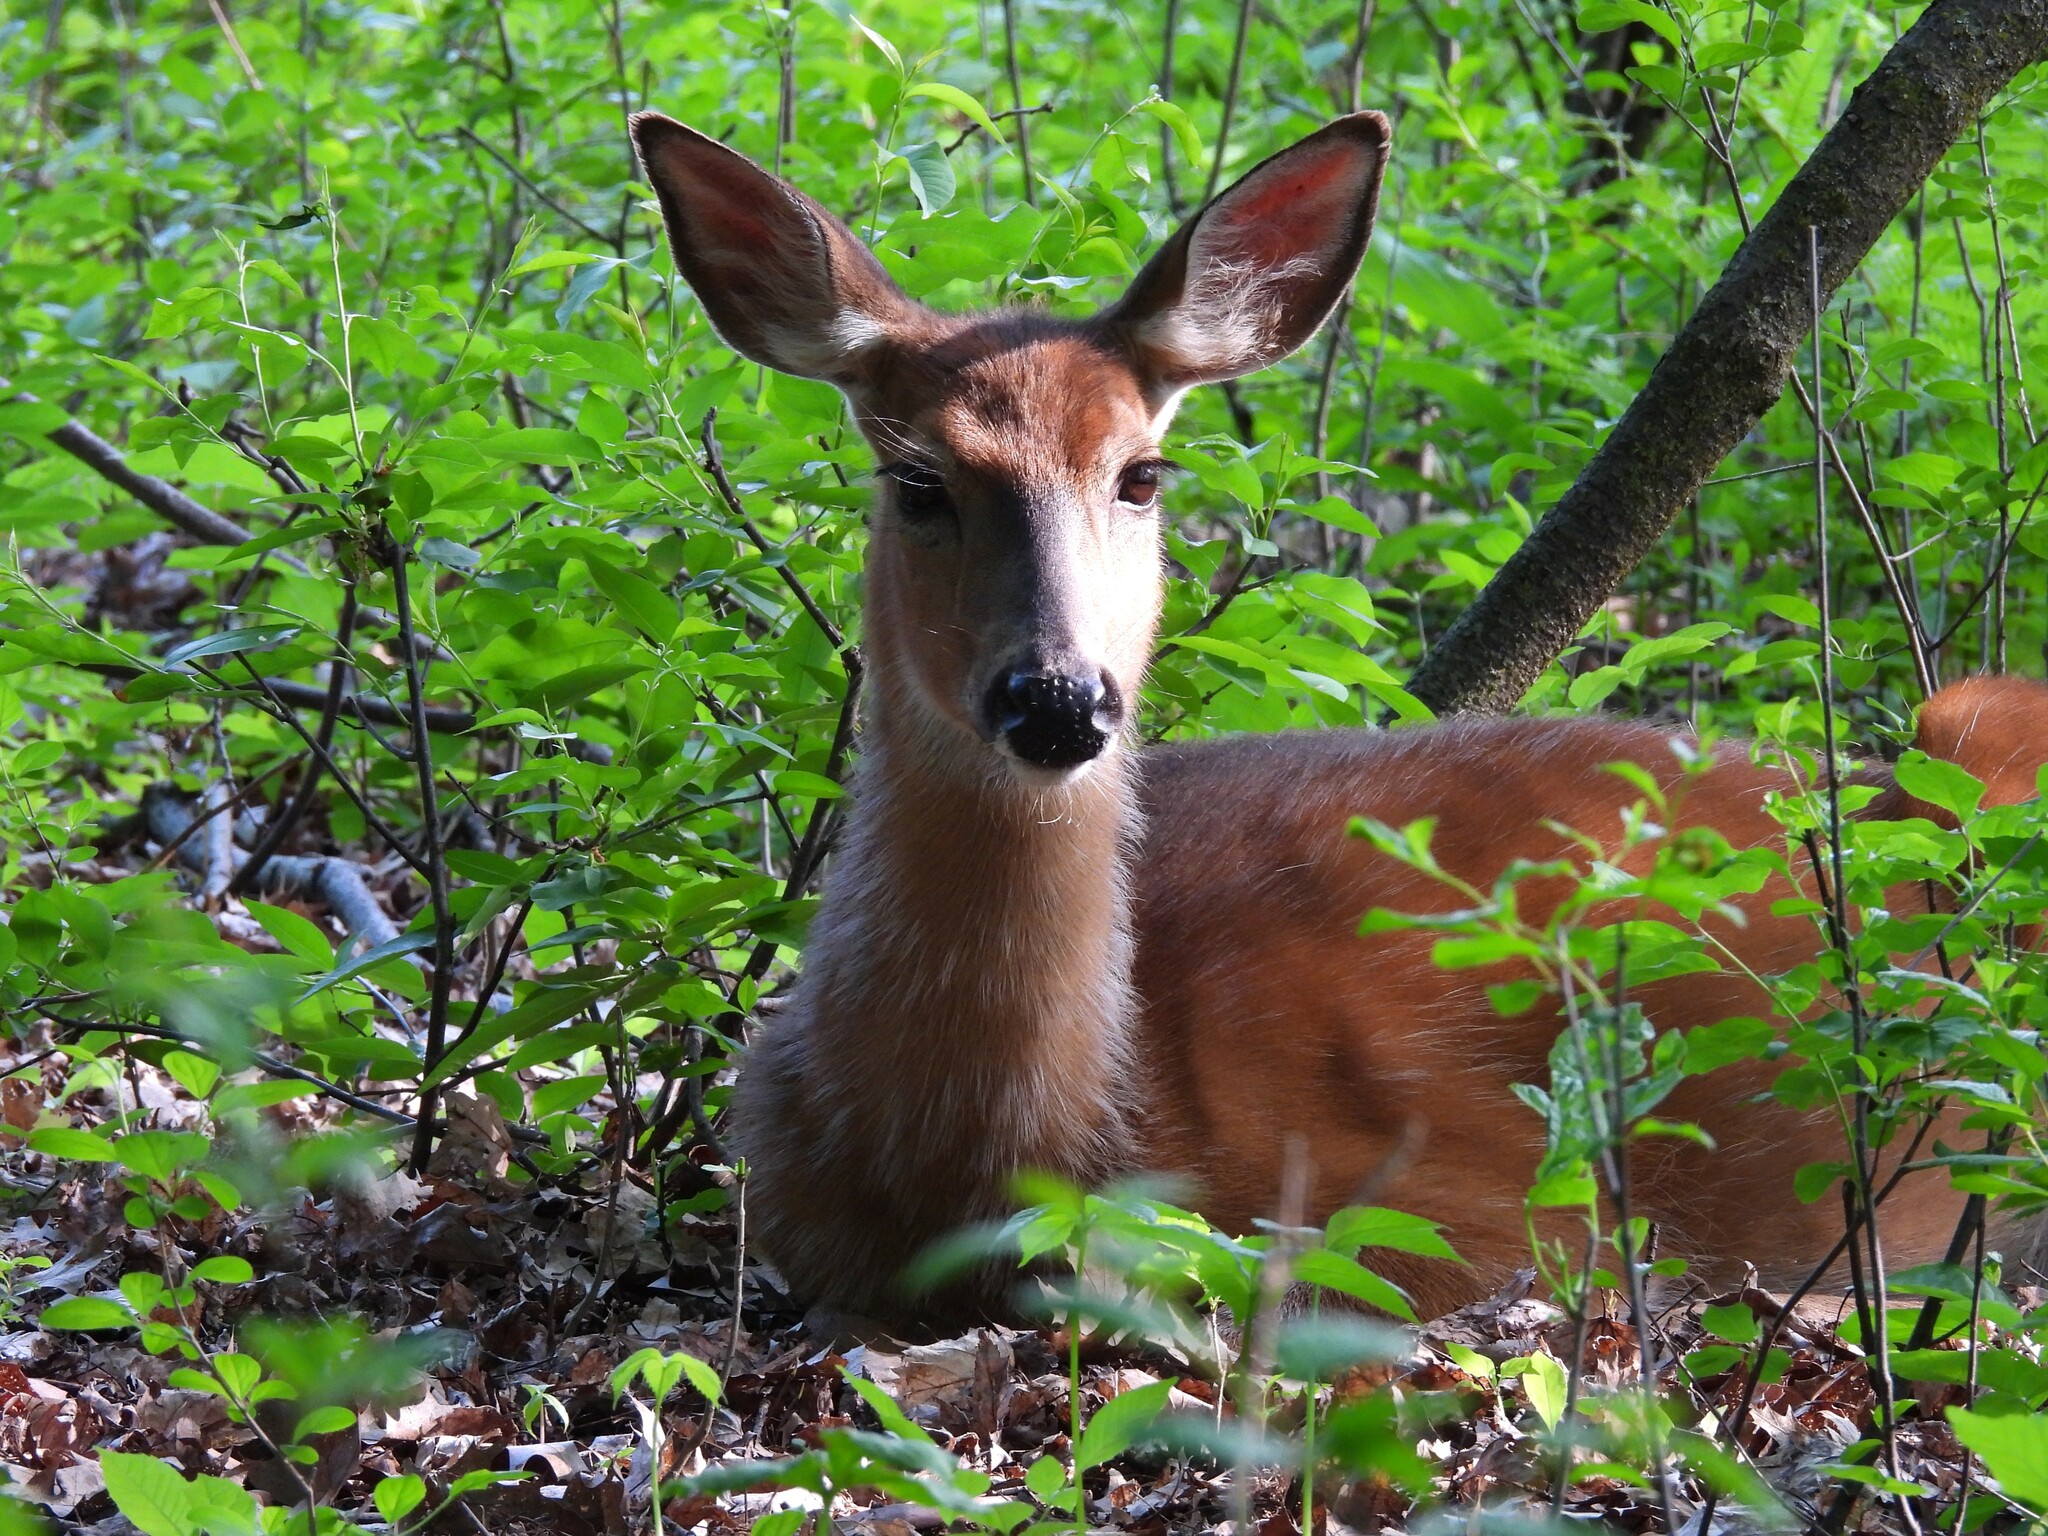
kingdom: Animalia
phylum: Chordata
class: Mammalia
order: Artiodactyla
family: Cervidae
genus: Odocoileus
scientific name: Odocoileus virginianus
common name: White-tailed deer
